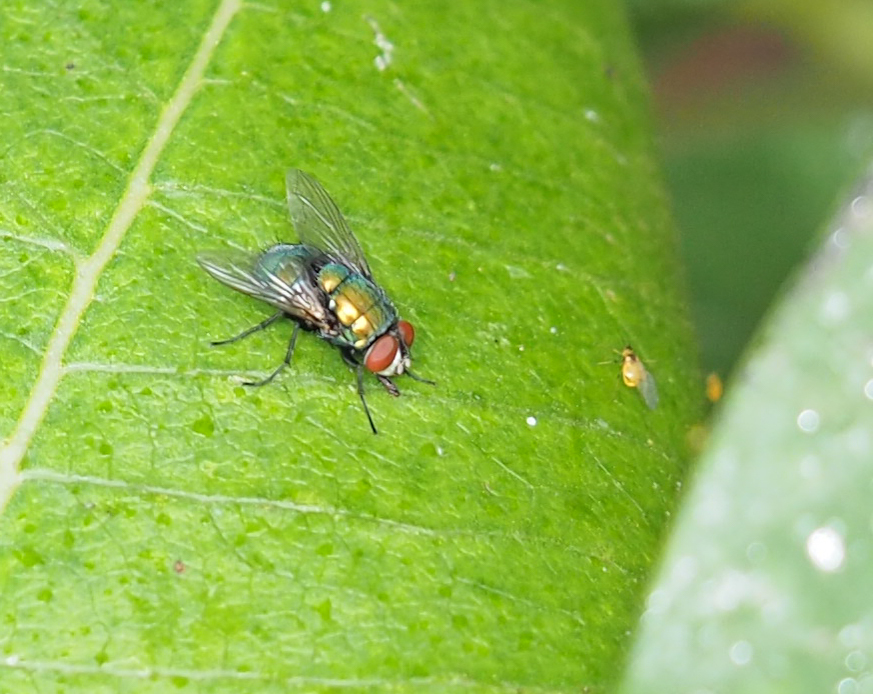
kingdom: Animalia
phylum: Arthropoda
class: Insecta
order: Diptera
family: Calliphoridae
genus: Lucilia
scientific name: Lucilia sericata
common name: Blow fly
